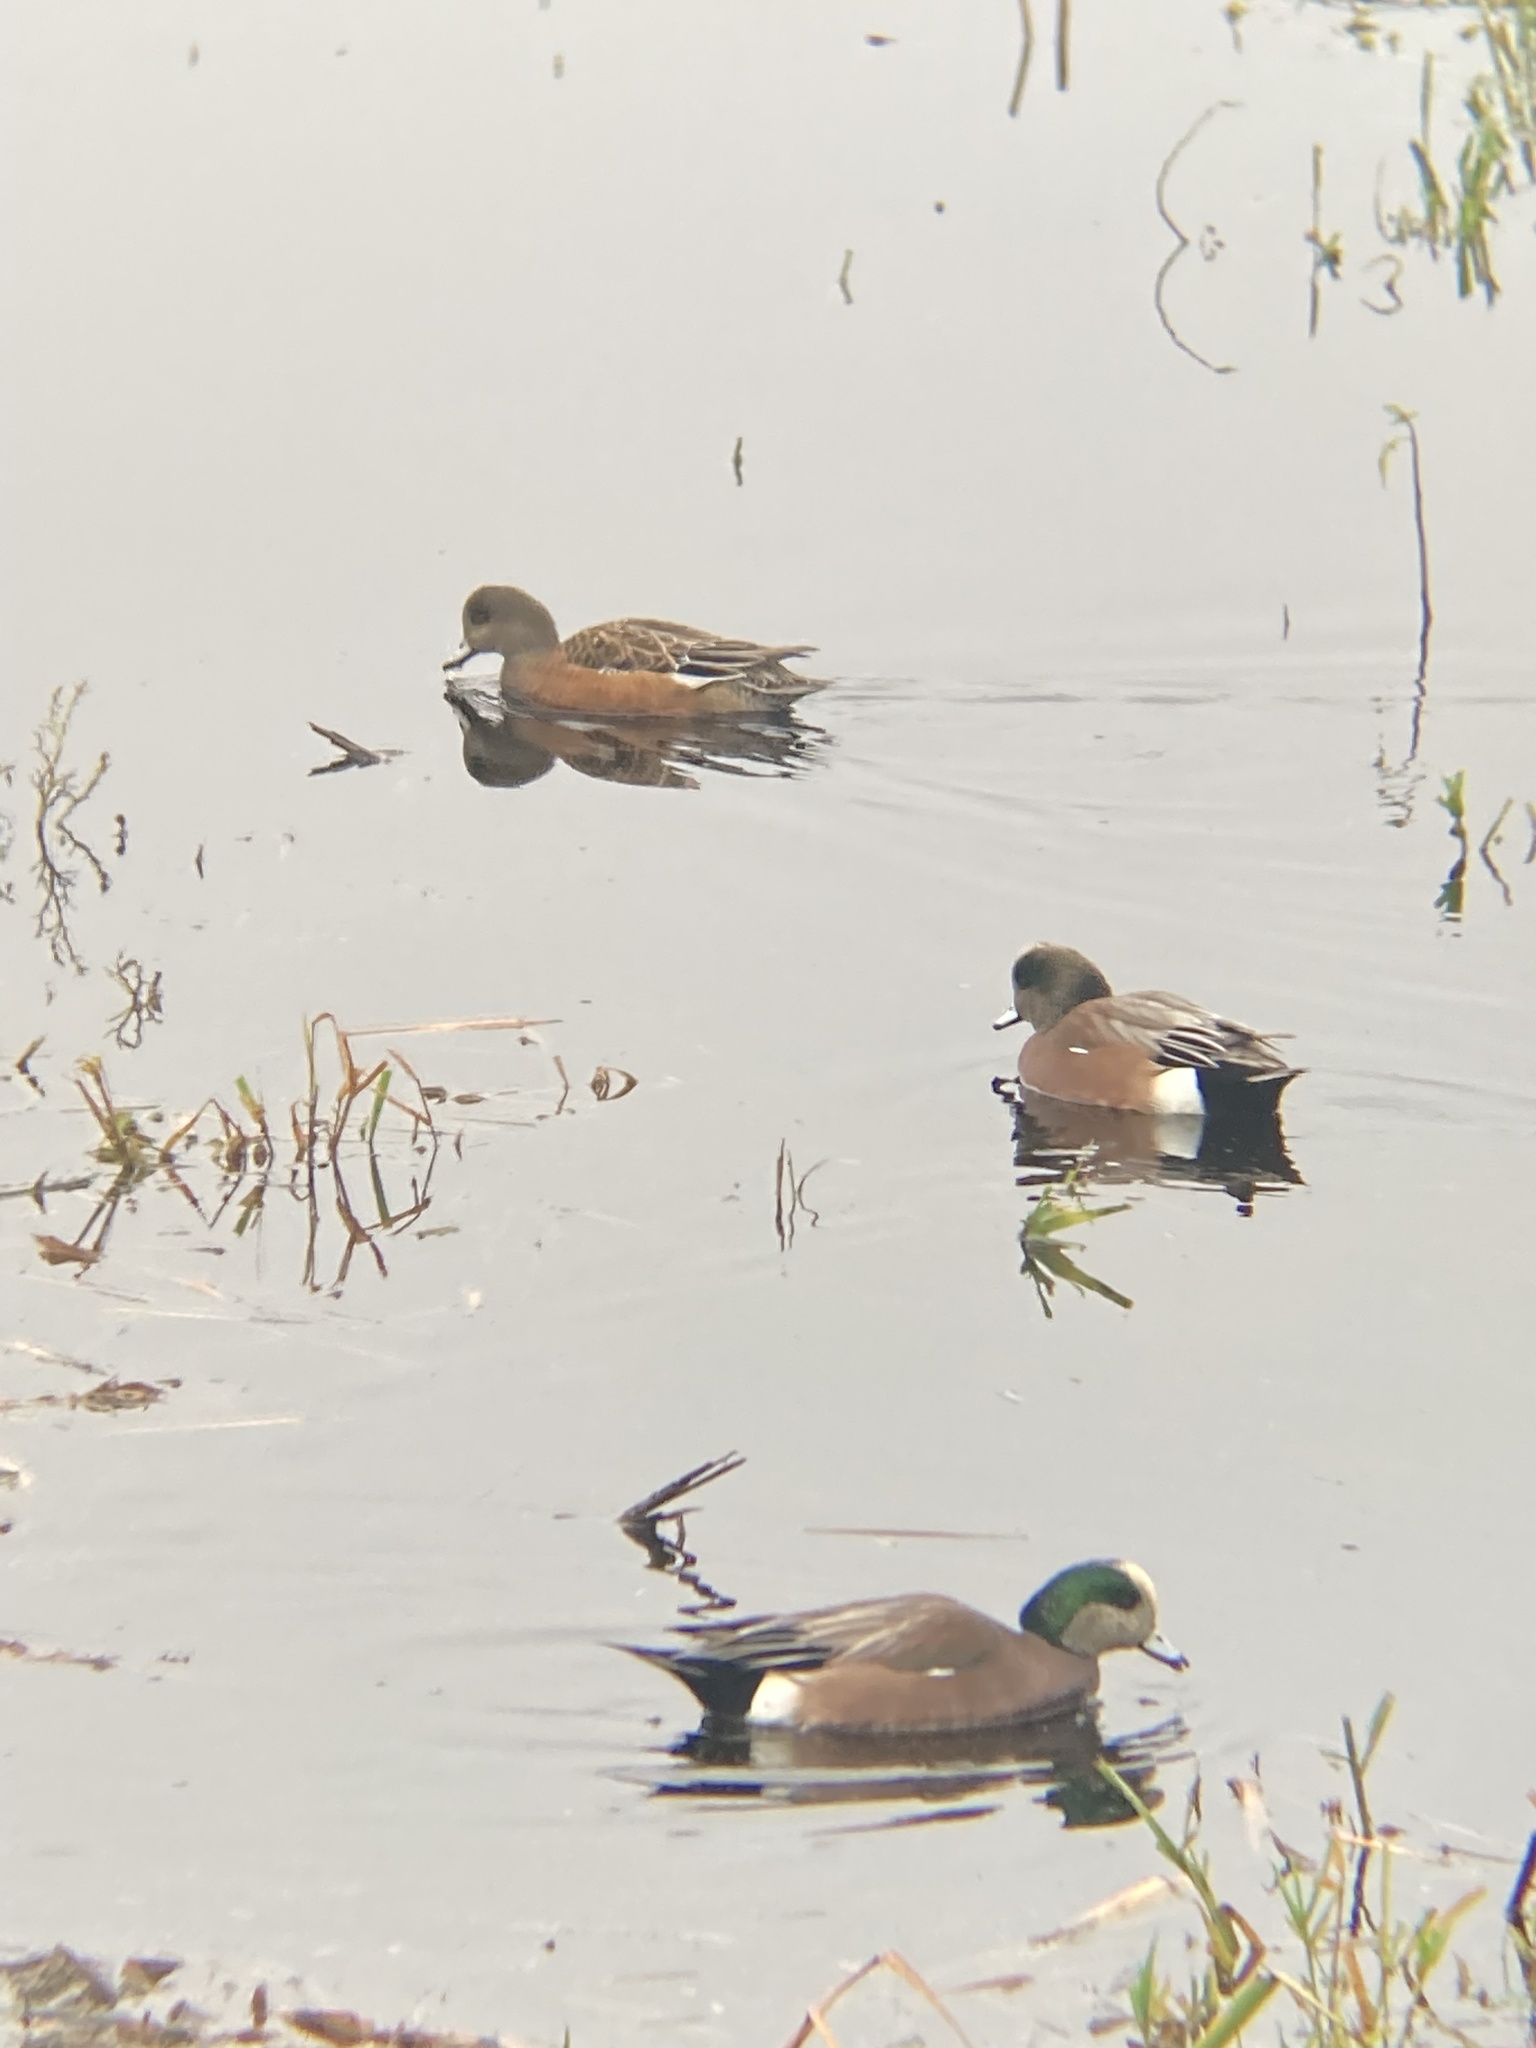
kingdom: Animalia
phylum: Chordata
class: Aves
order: Anseriformes
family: Anatidae
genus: Mareca
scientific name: Mareca americana
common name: American wigeon
